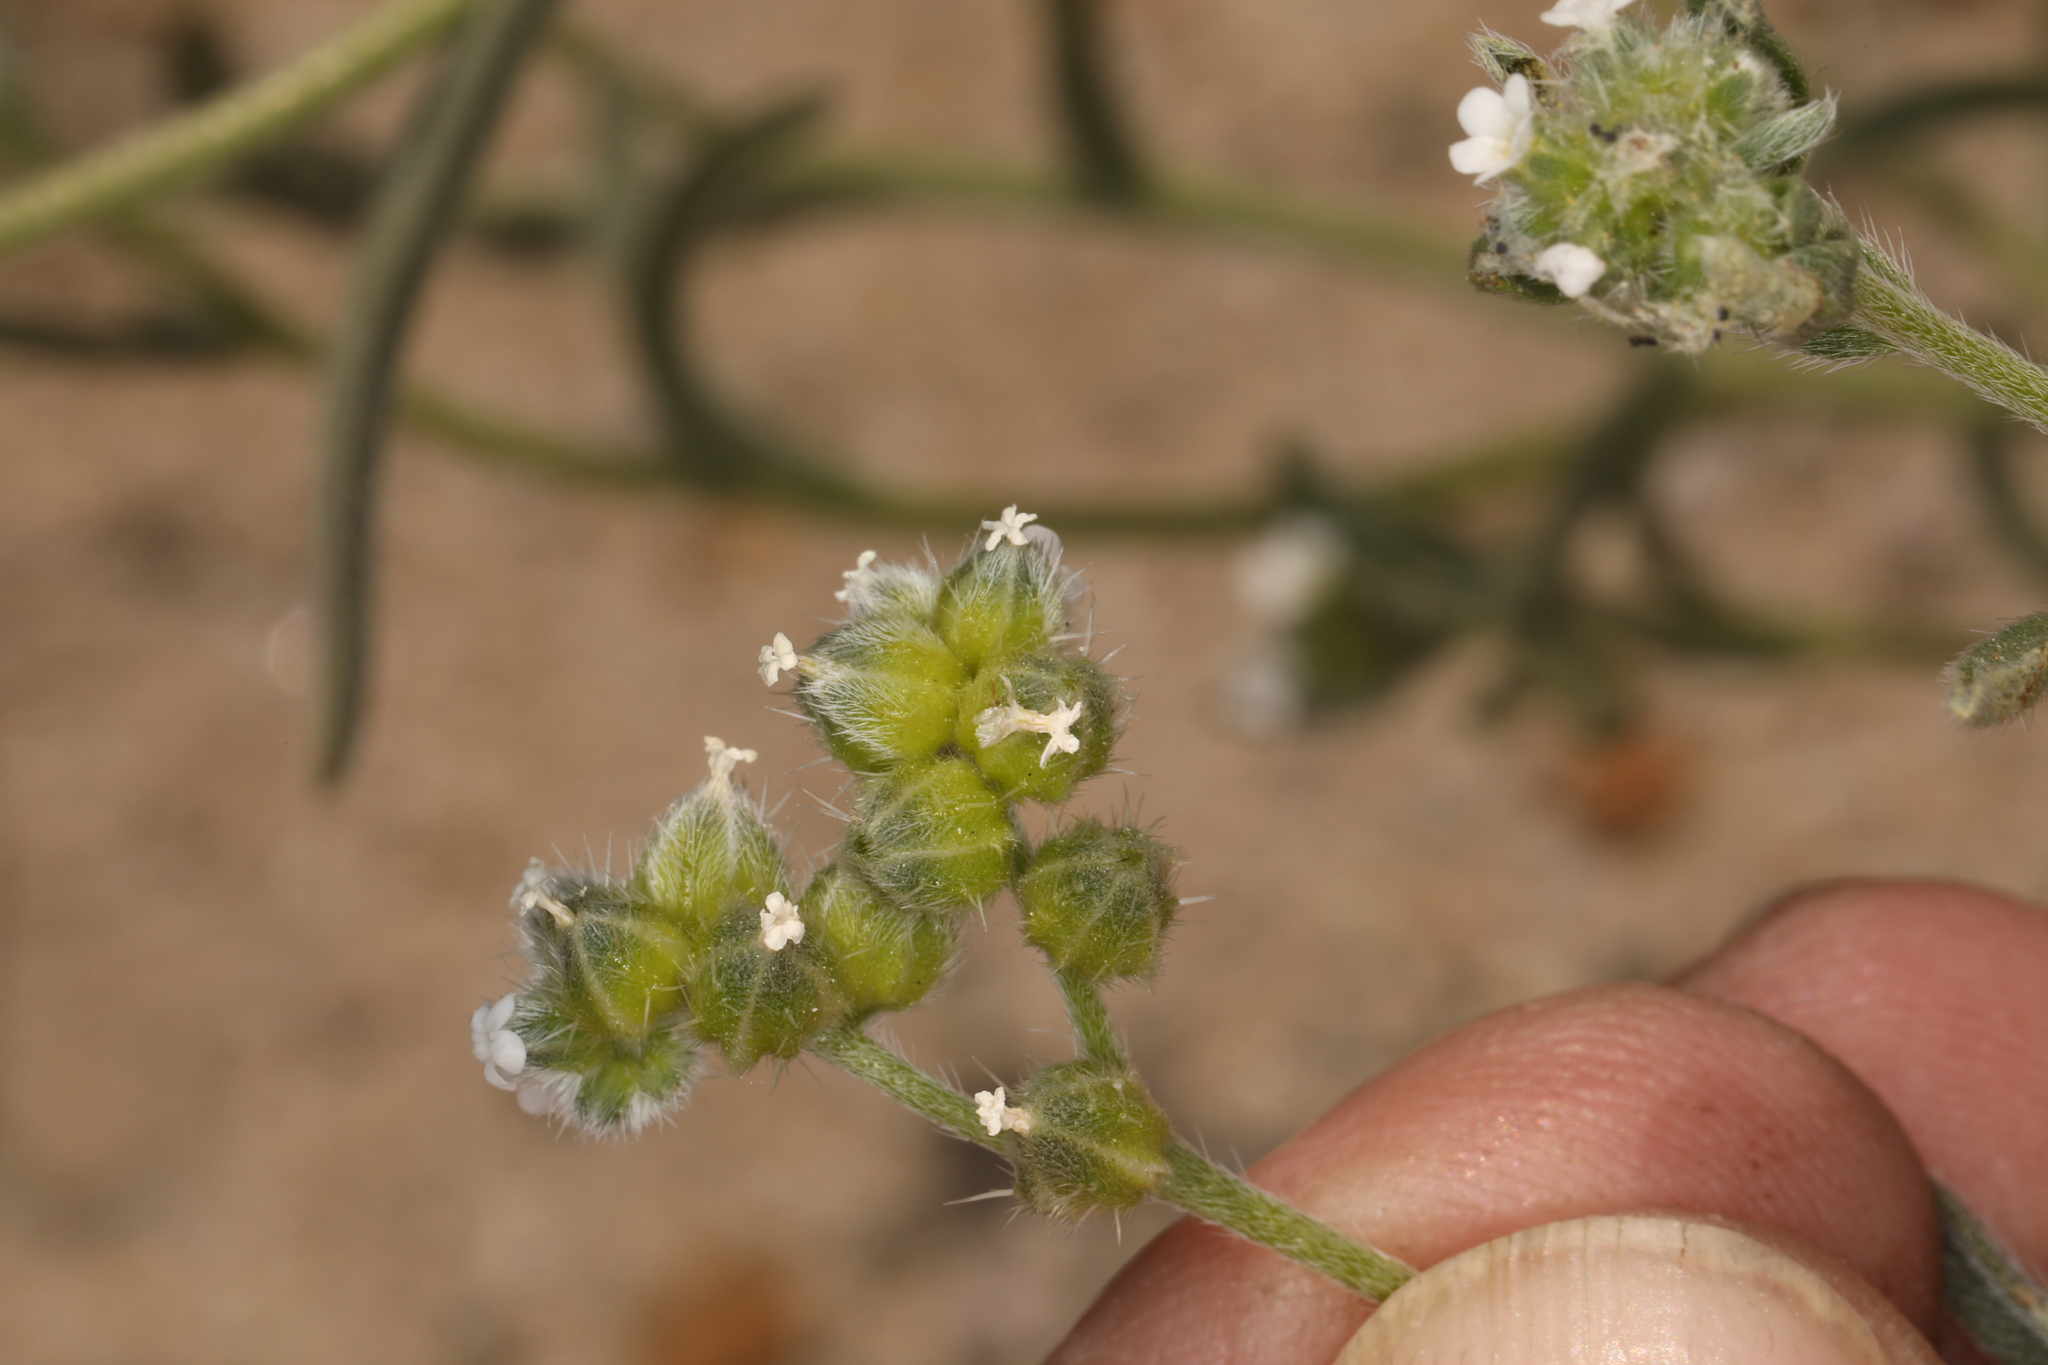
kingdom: Plantae
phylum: Tracheophyta
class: Magnoliopsida
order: Boraginales
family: Boraginaceae
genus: Cryptantha
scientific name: Cryptantha pterocarya
